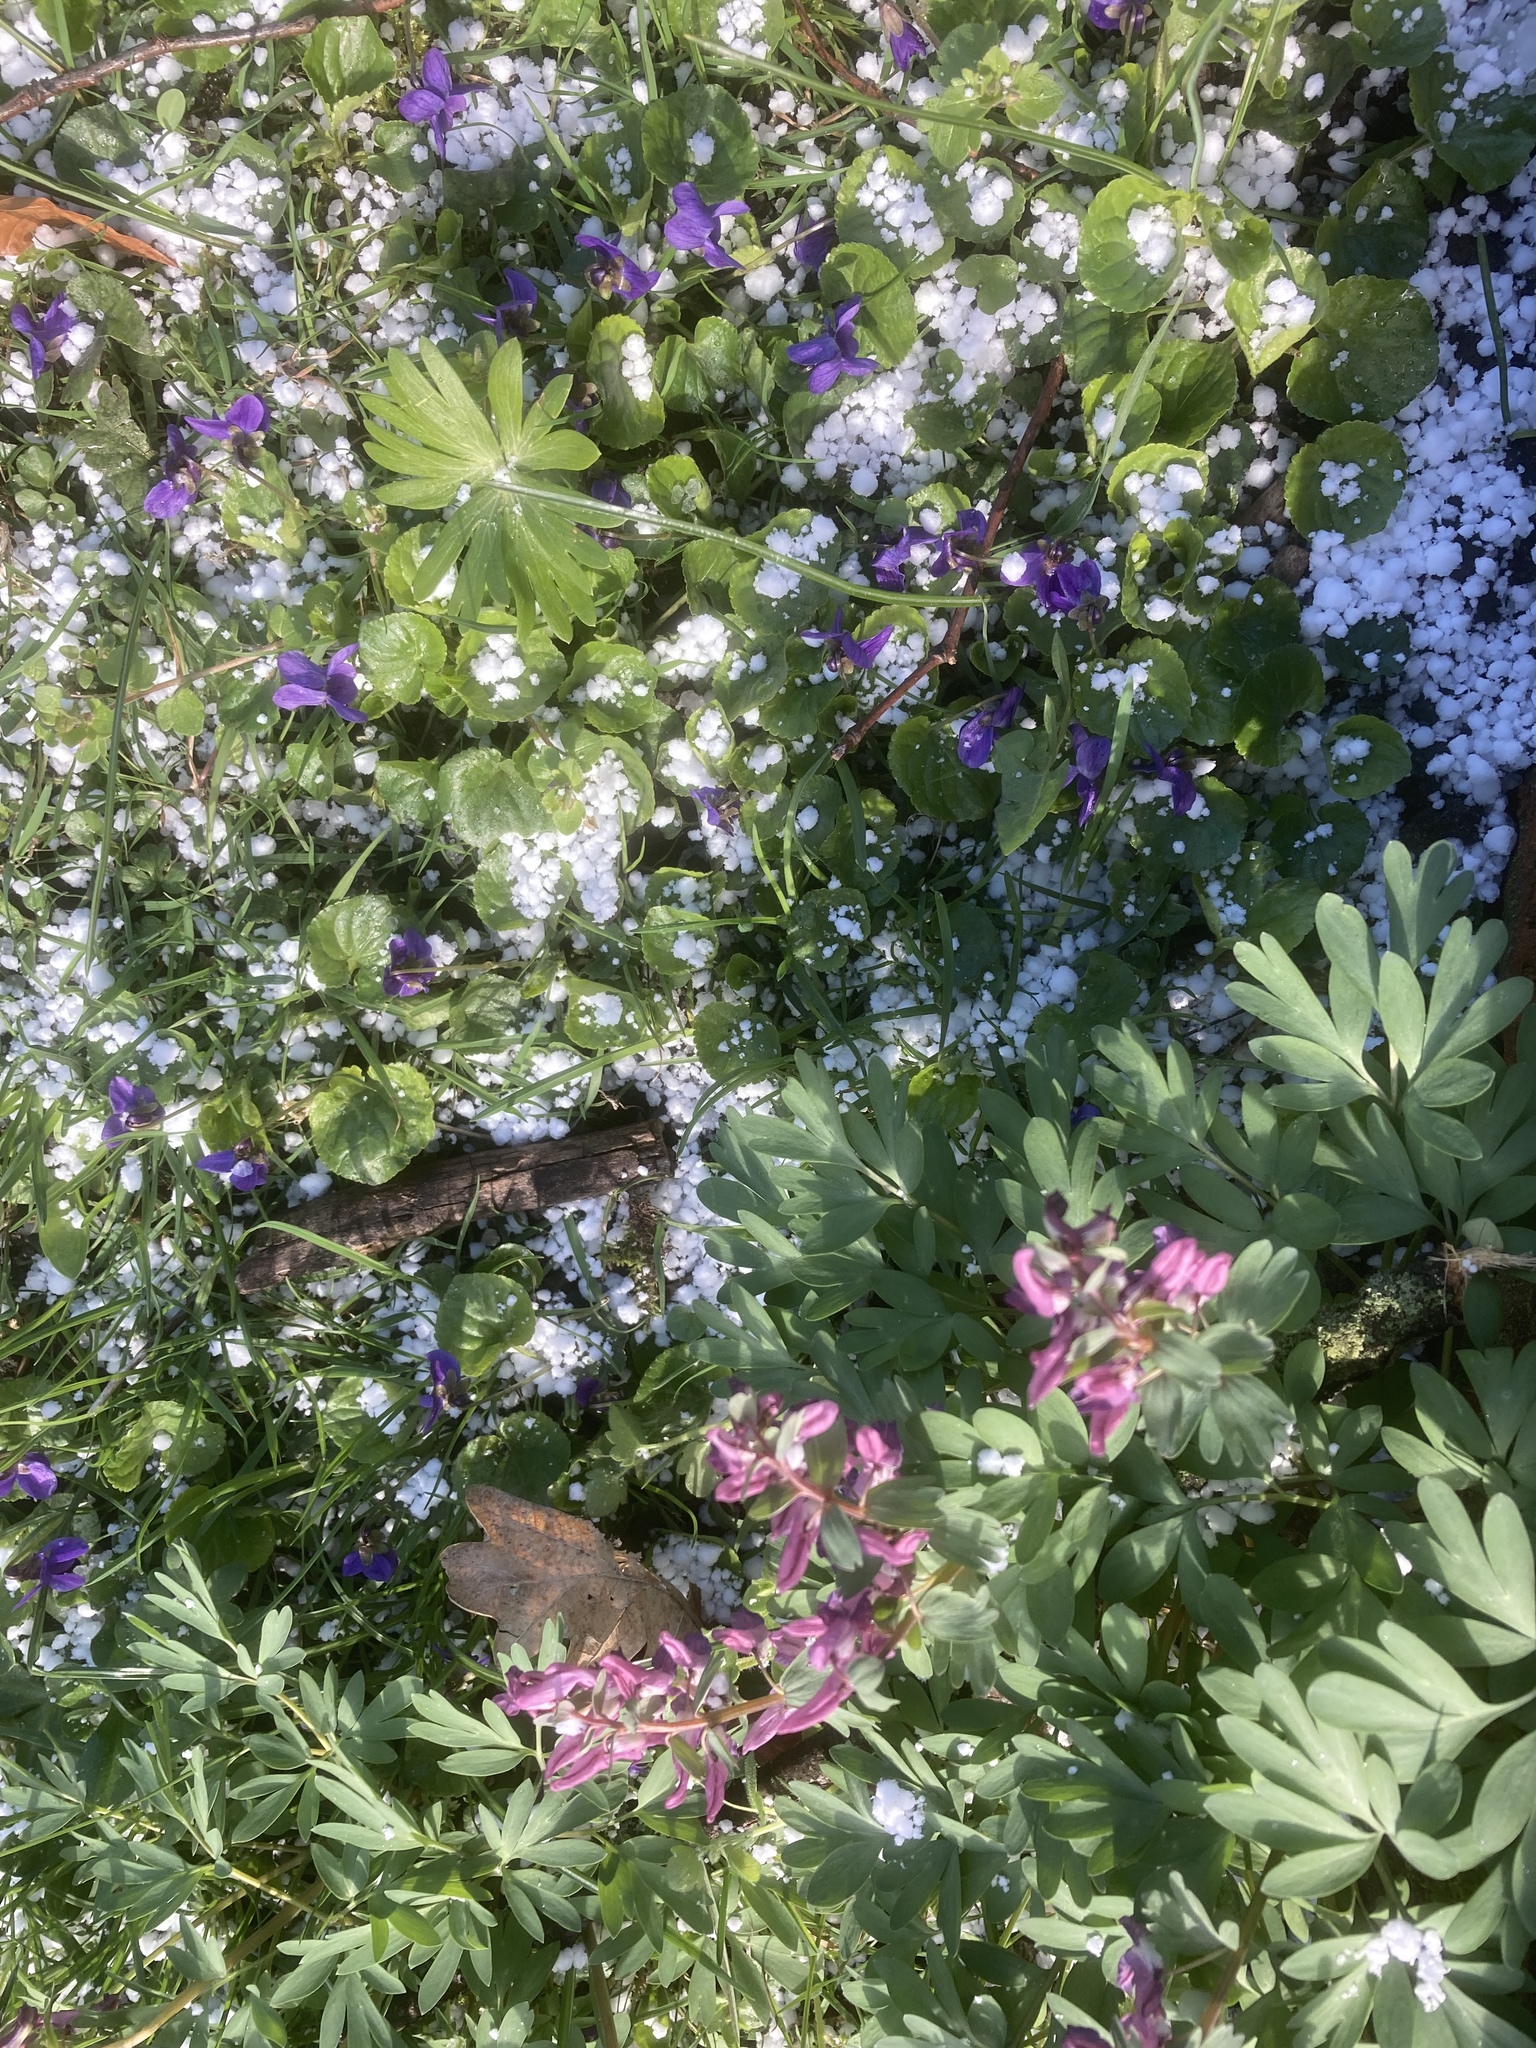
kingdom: Plantae
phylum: Tracheophyta
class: Magnoliopsida
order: Ranunculales
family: Ranunculaceae
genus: Eranthis
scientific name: Eranthis hyemalis
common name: Winter aconite
